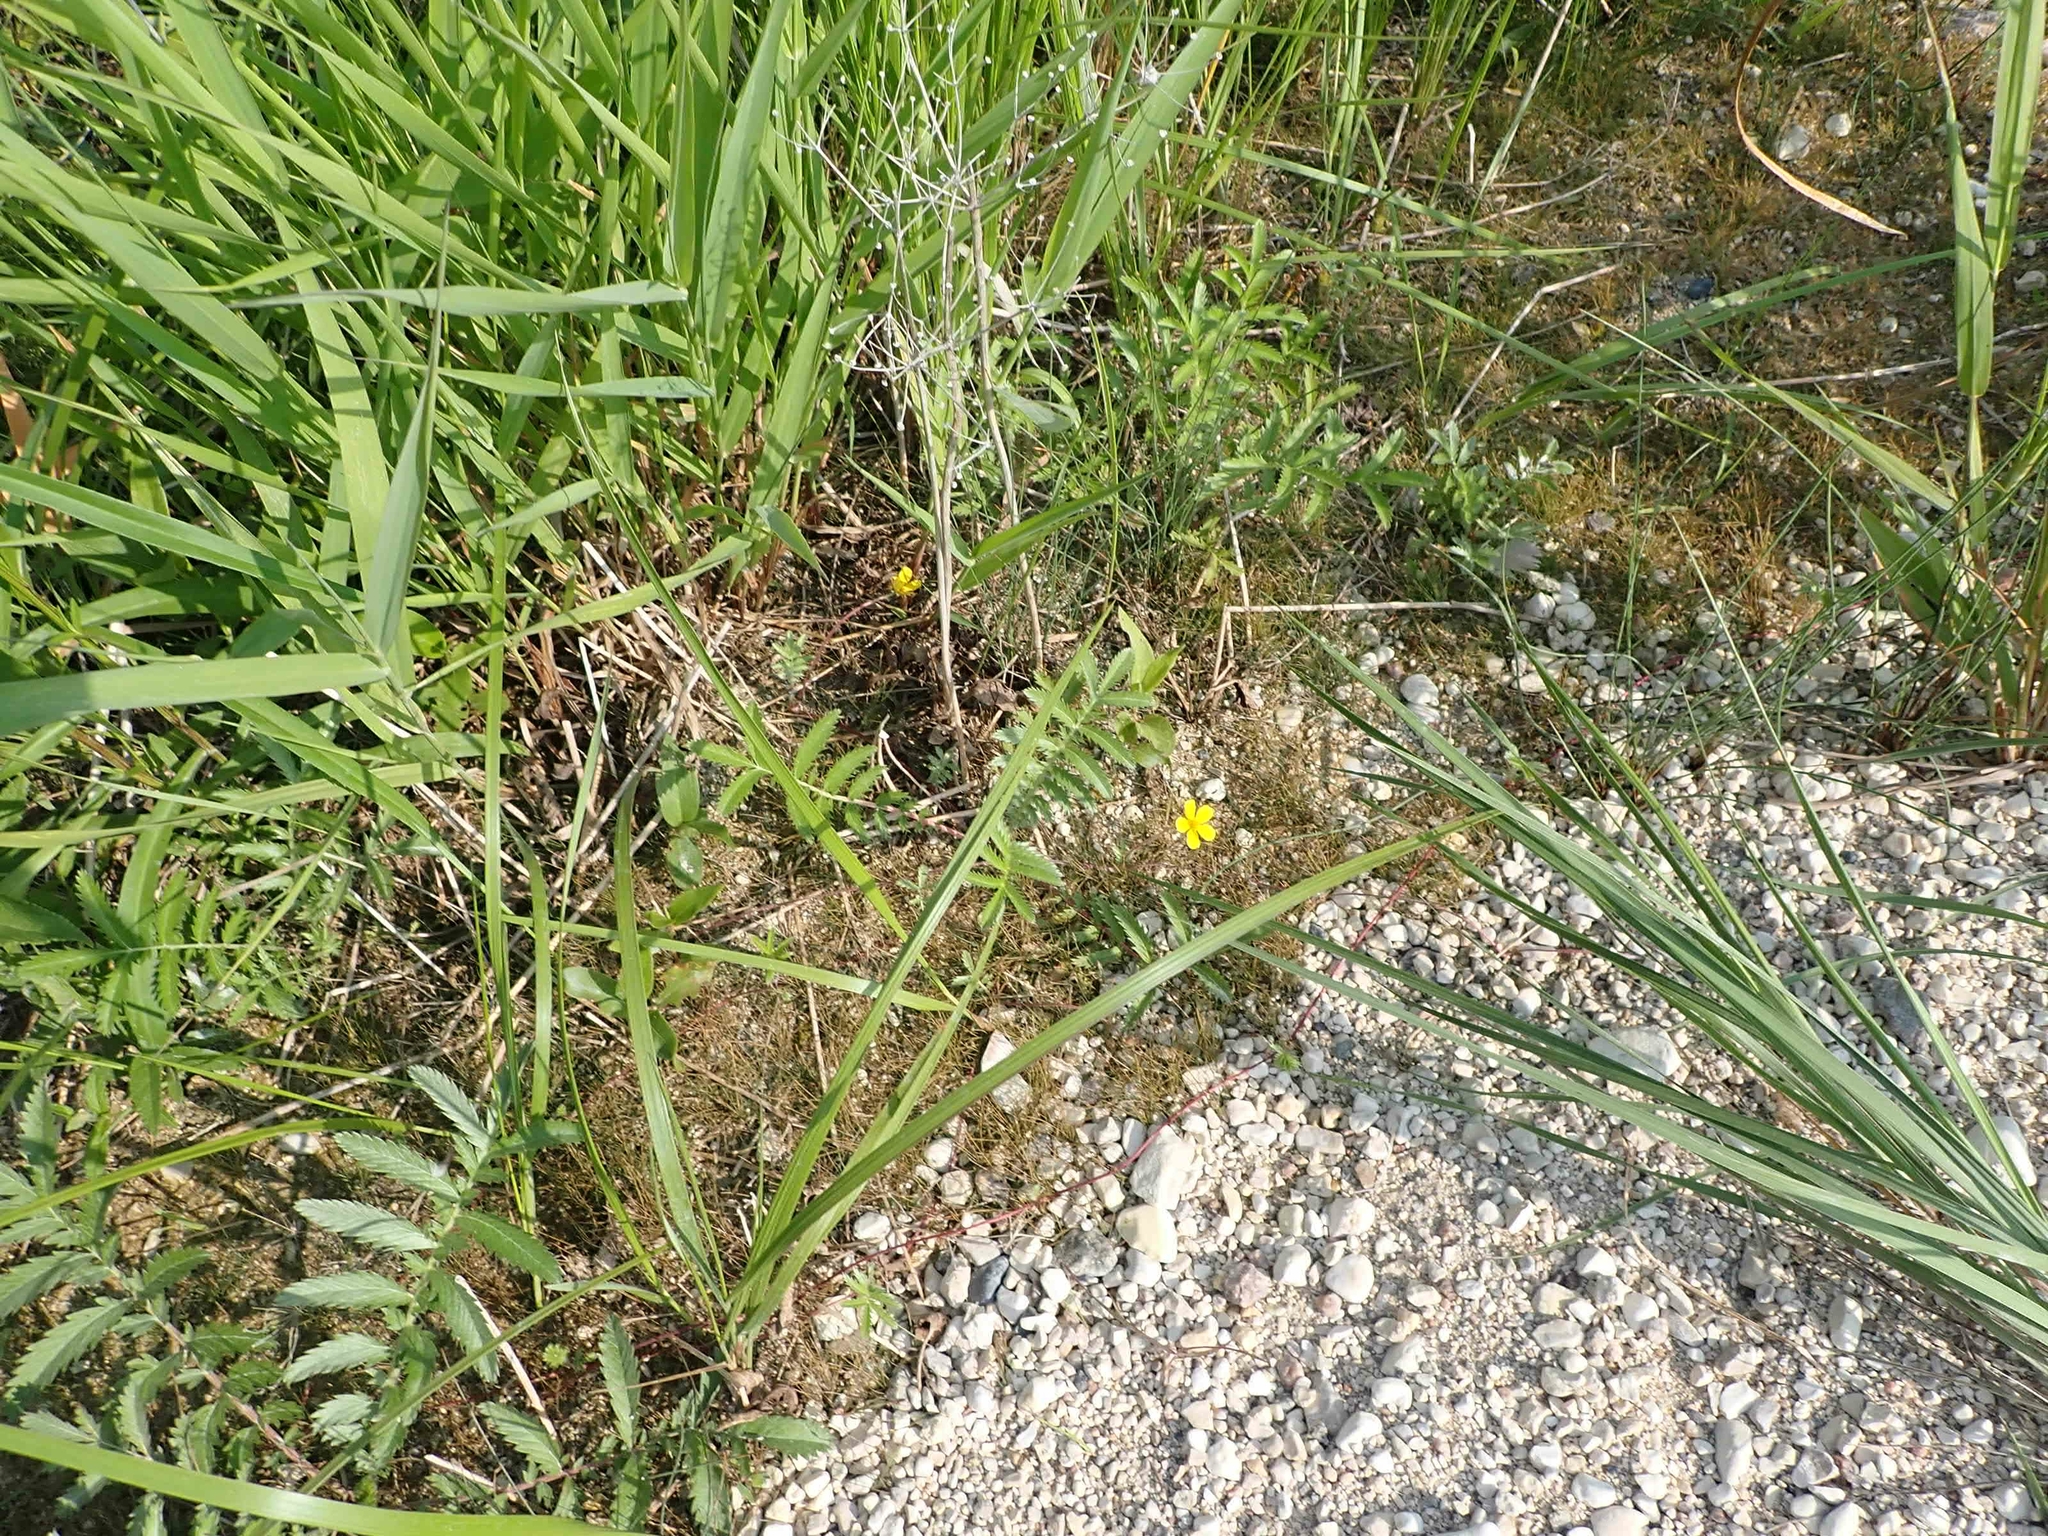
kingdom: Plantae
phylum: Tracheophyta
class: Magnoliopsida
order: Rosales
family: Rosaceae
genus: Argentina
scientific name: Argentina anserina
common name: Common silverweed
